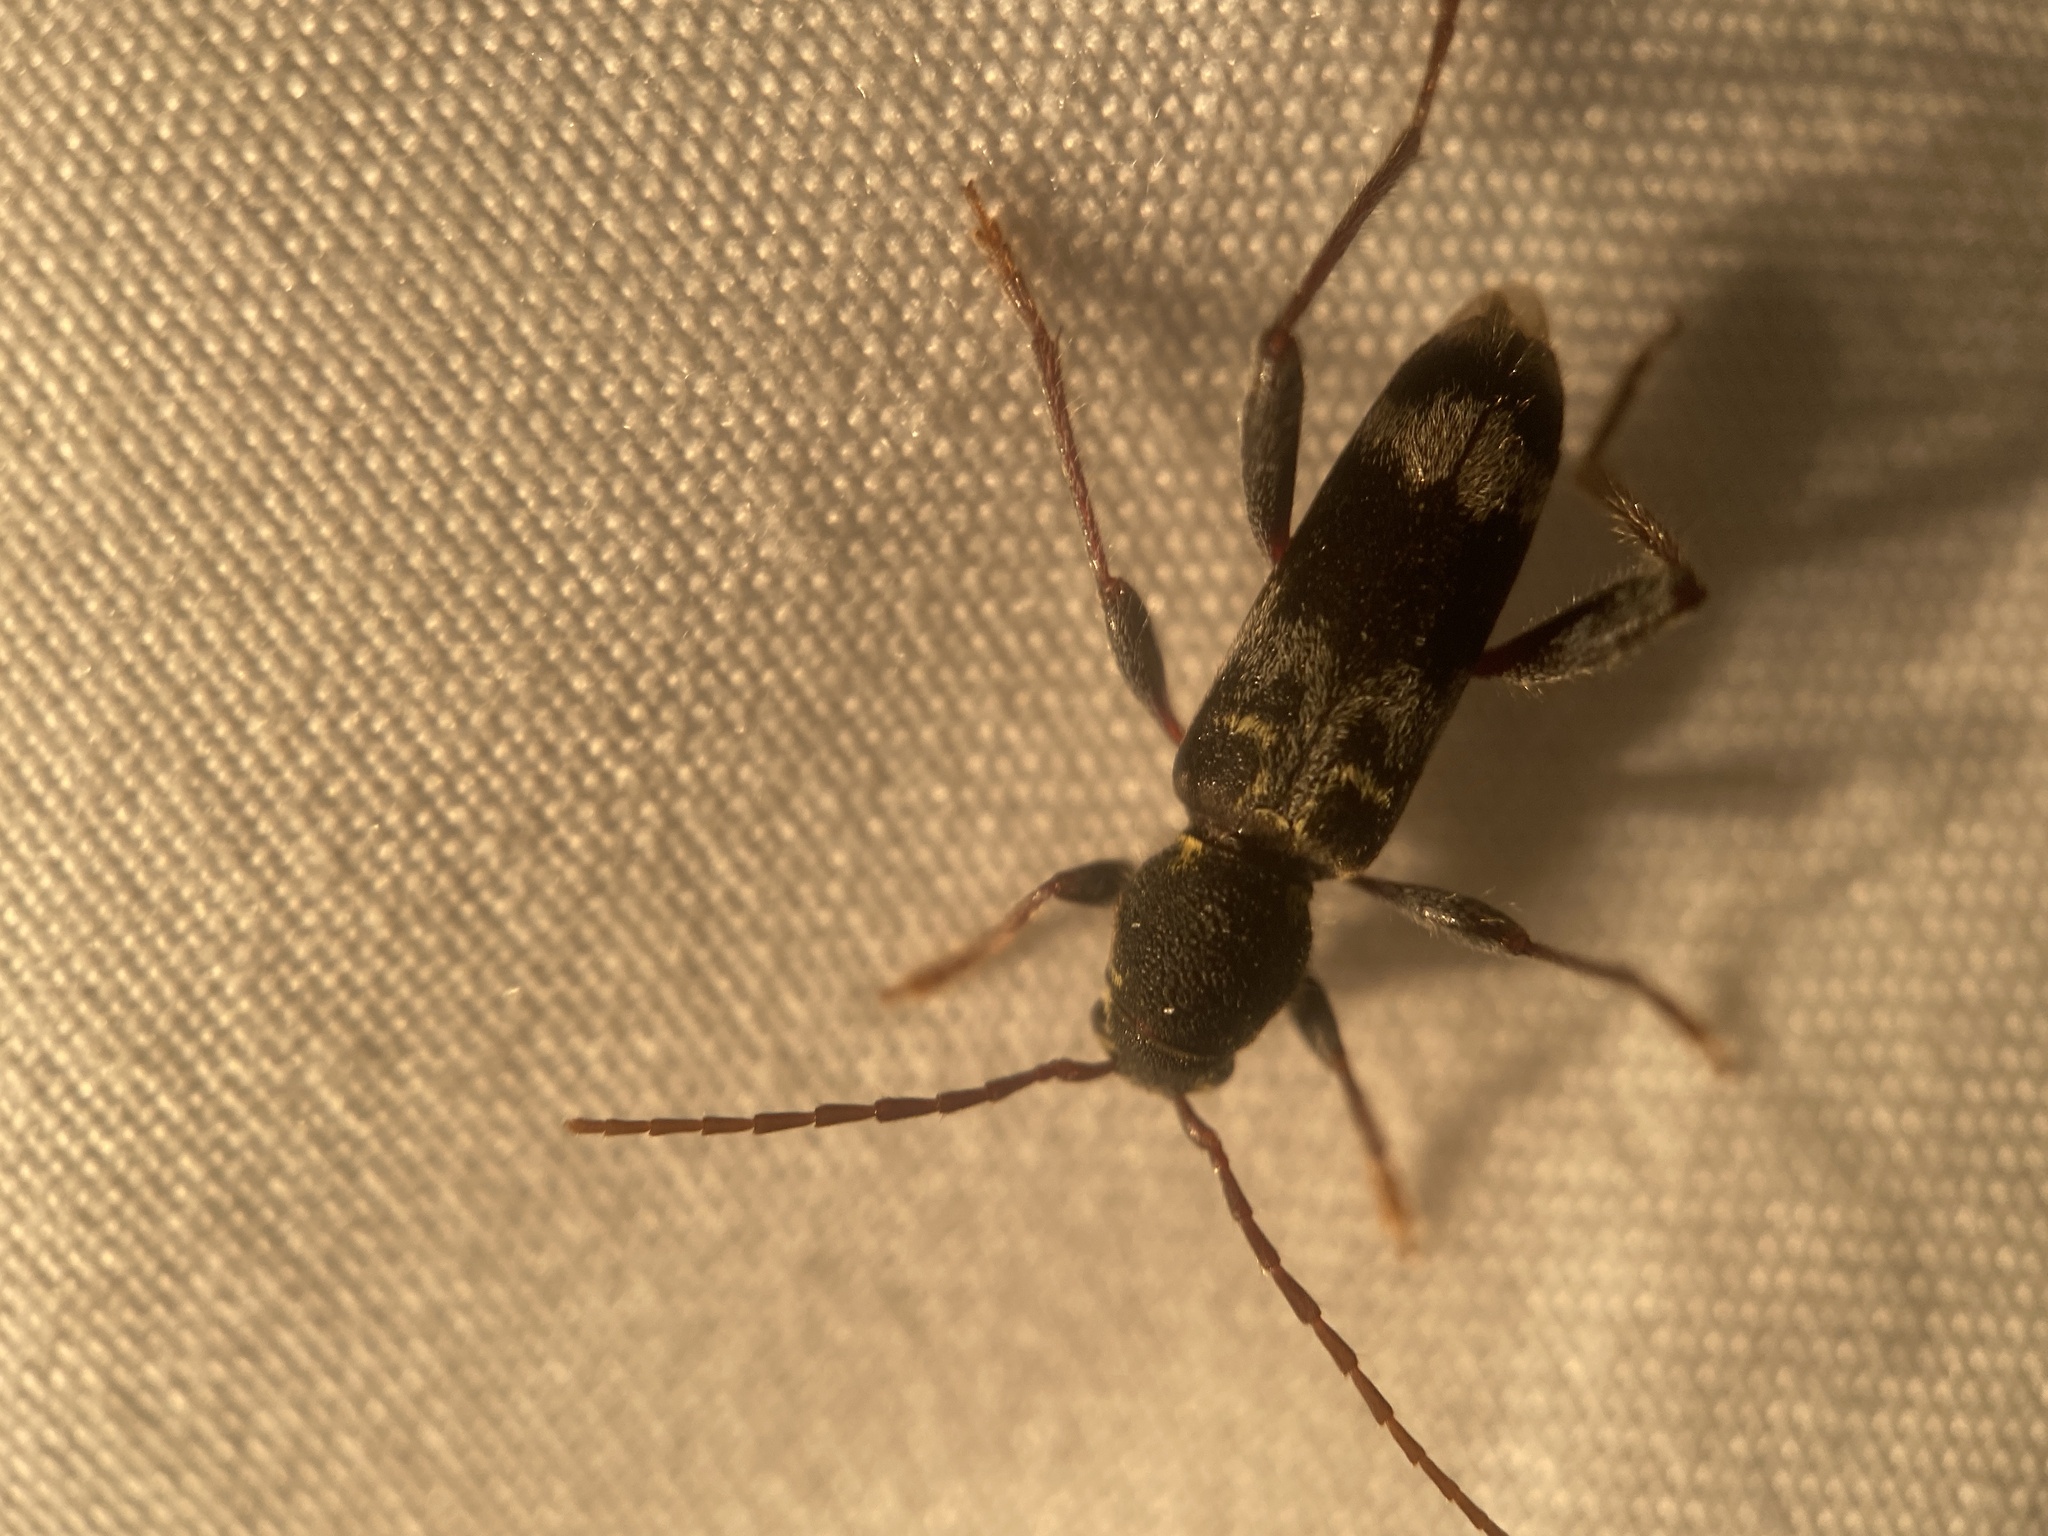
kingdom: Animalia
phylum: Arthropoda
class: Insecta
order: Coleoptera
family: Melandryidae
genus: Dircaea
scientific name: Dircaea liturata
